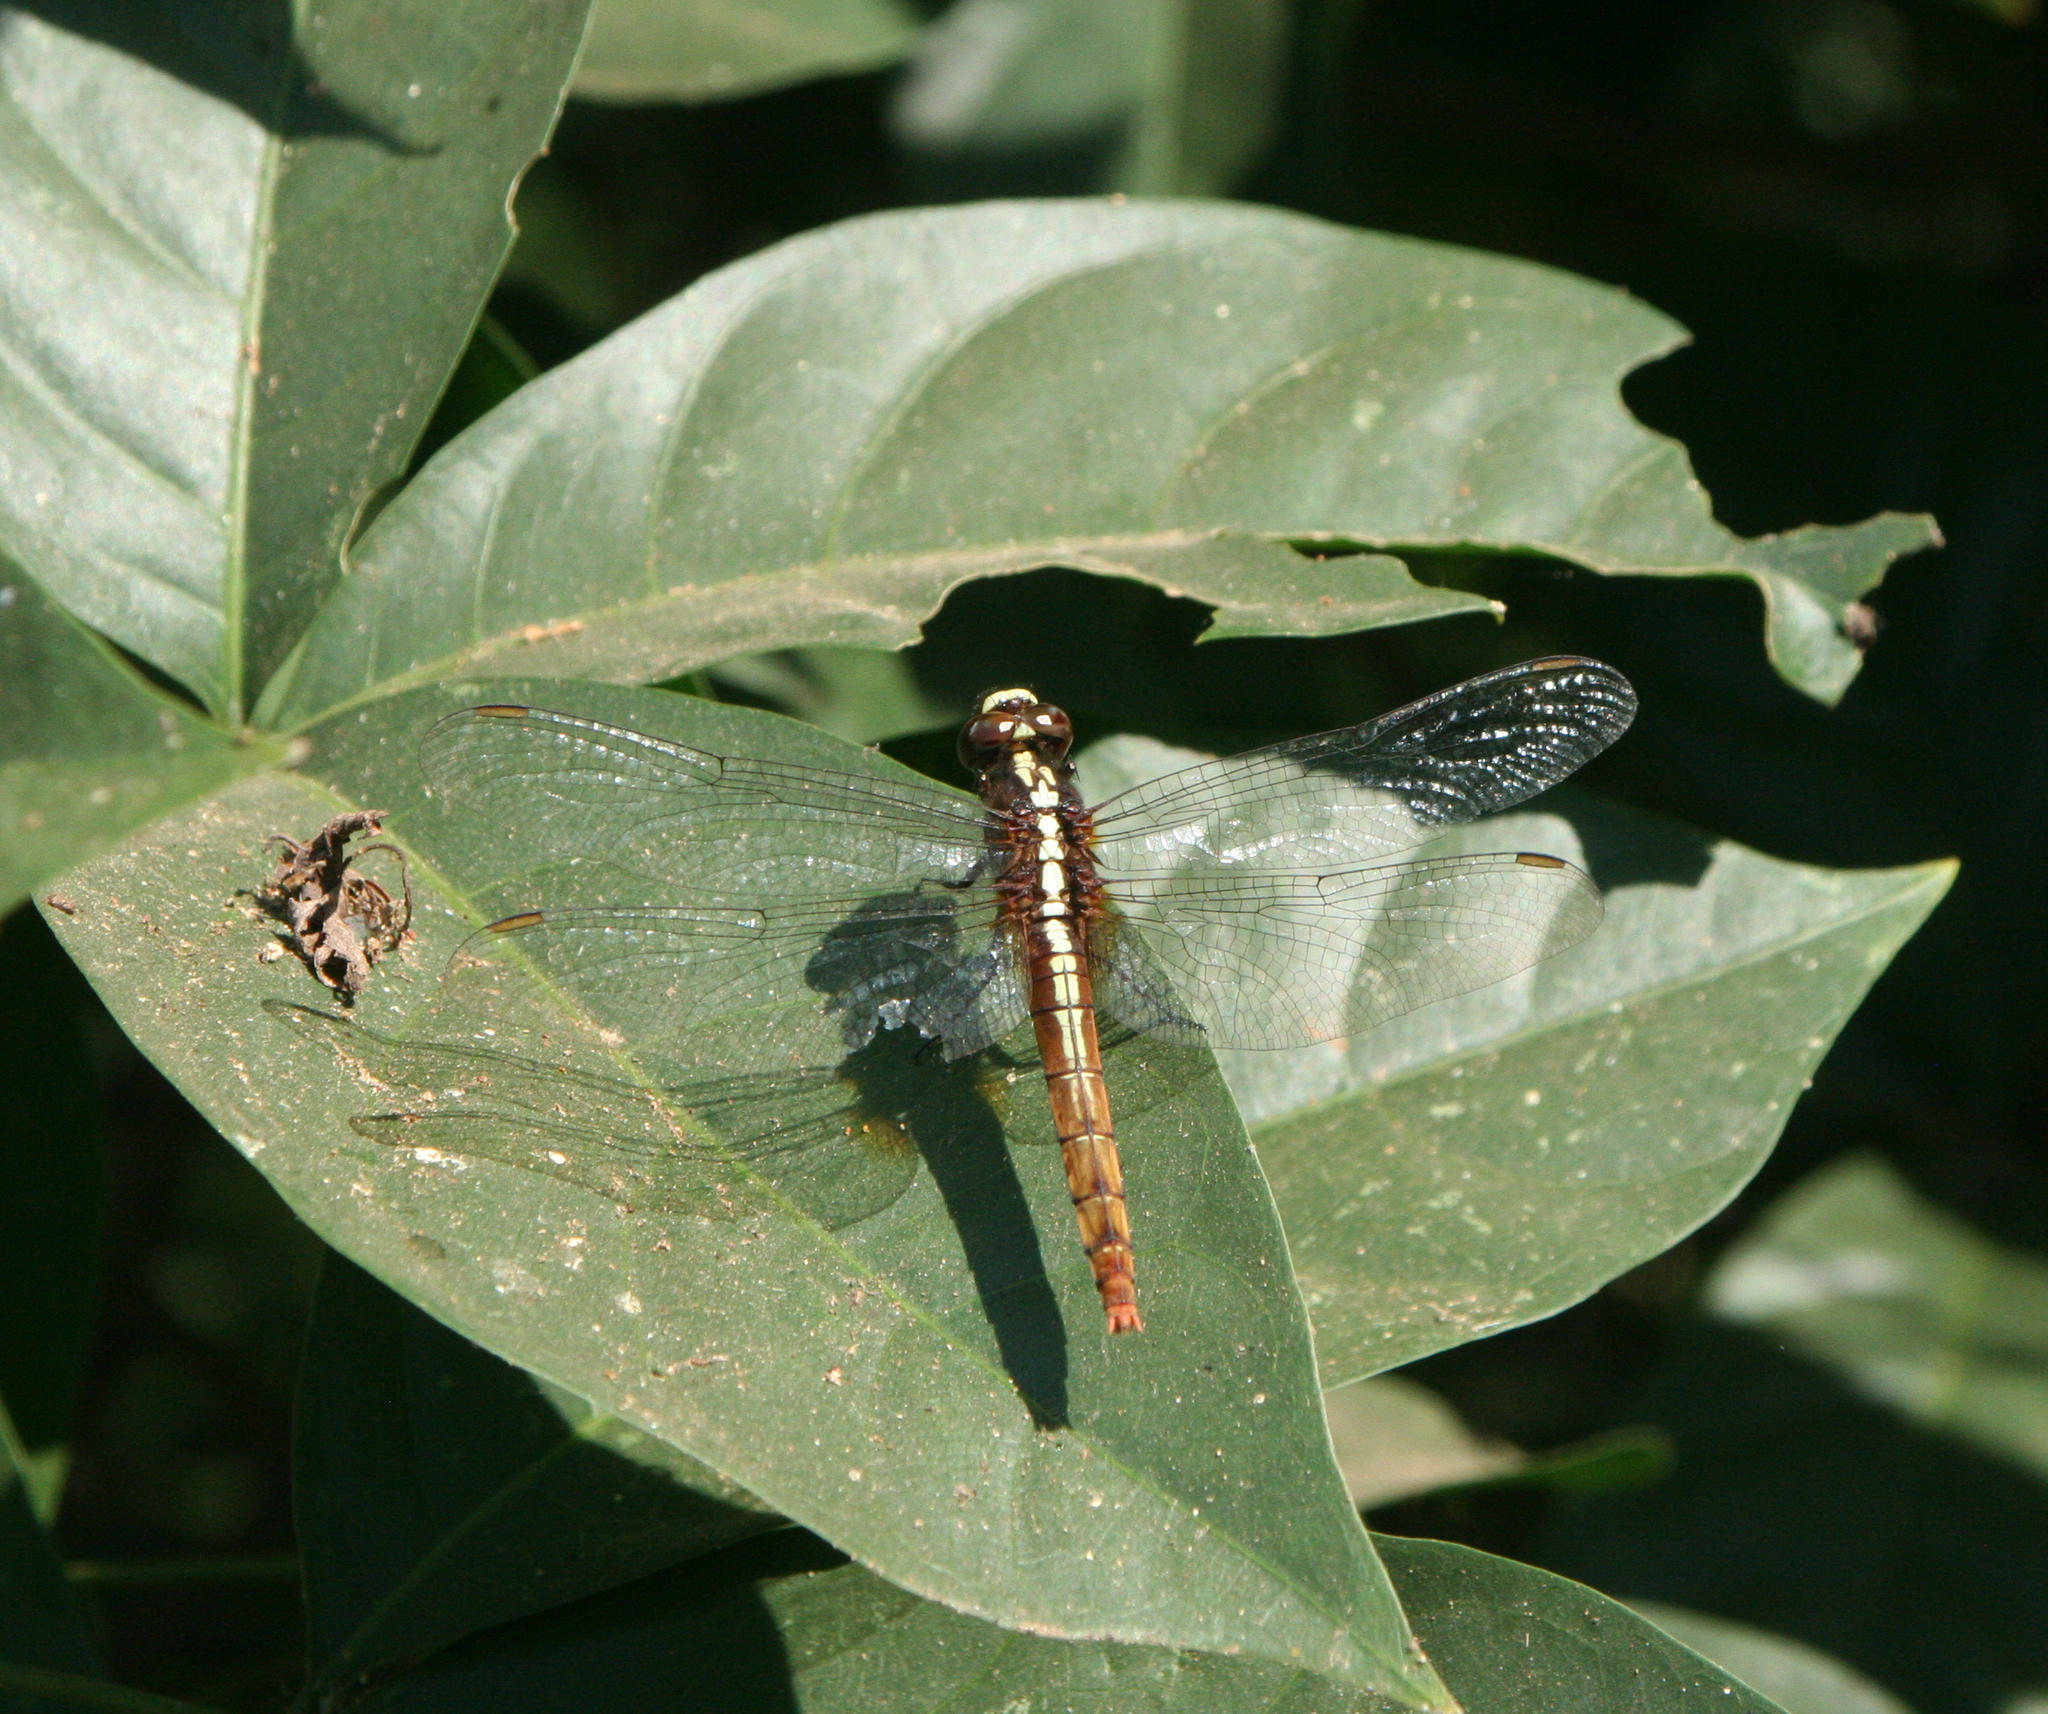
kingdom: Animalia
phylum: Arthropoda
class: Insecta
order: Odonata
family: Libellulidae
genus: Rhodothemis
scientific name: Rhodothemis rufa
